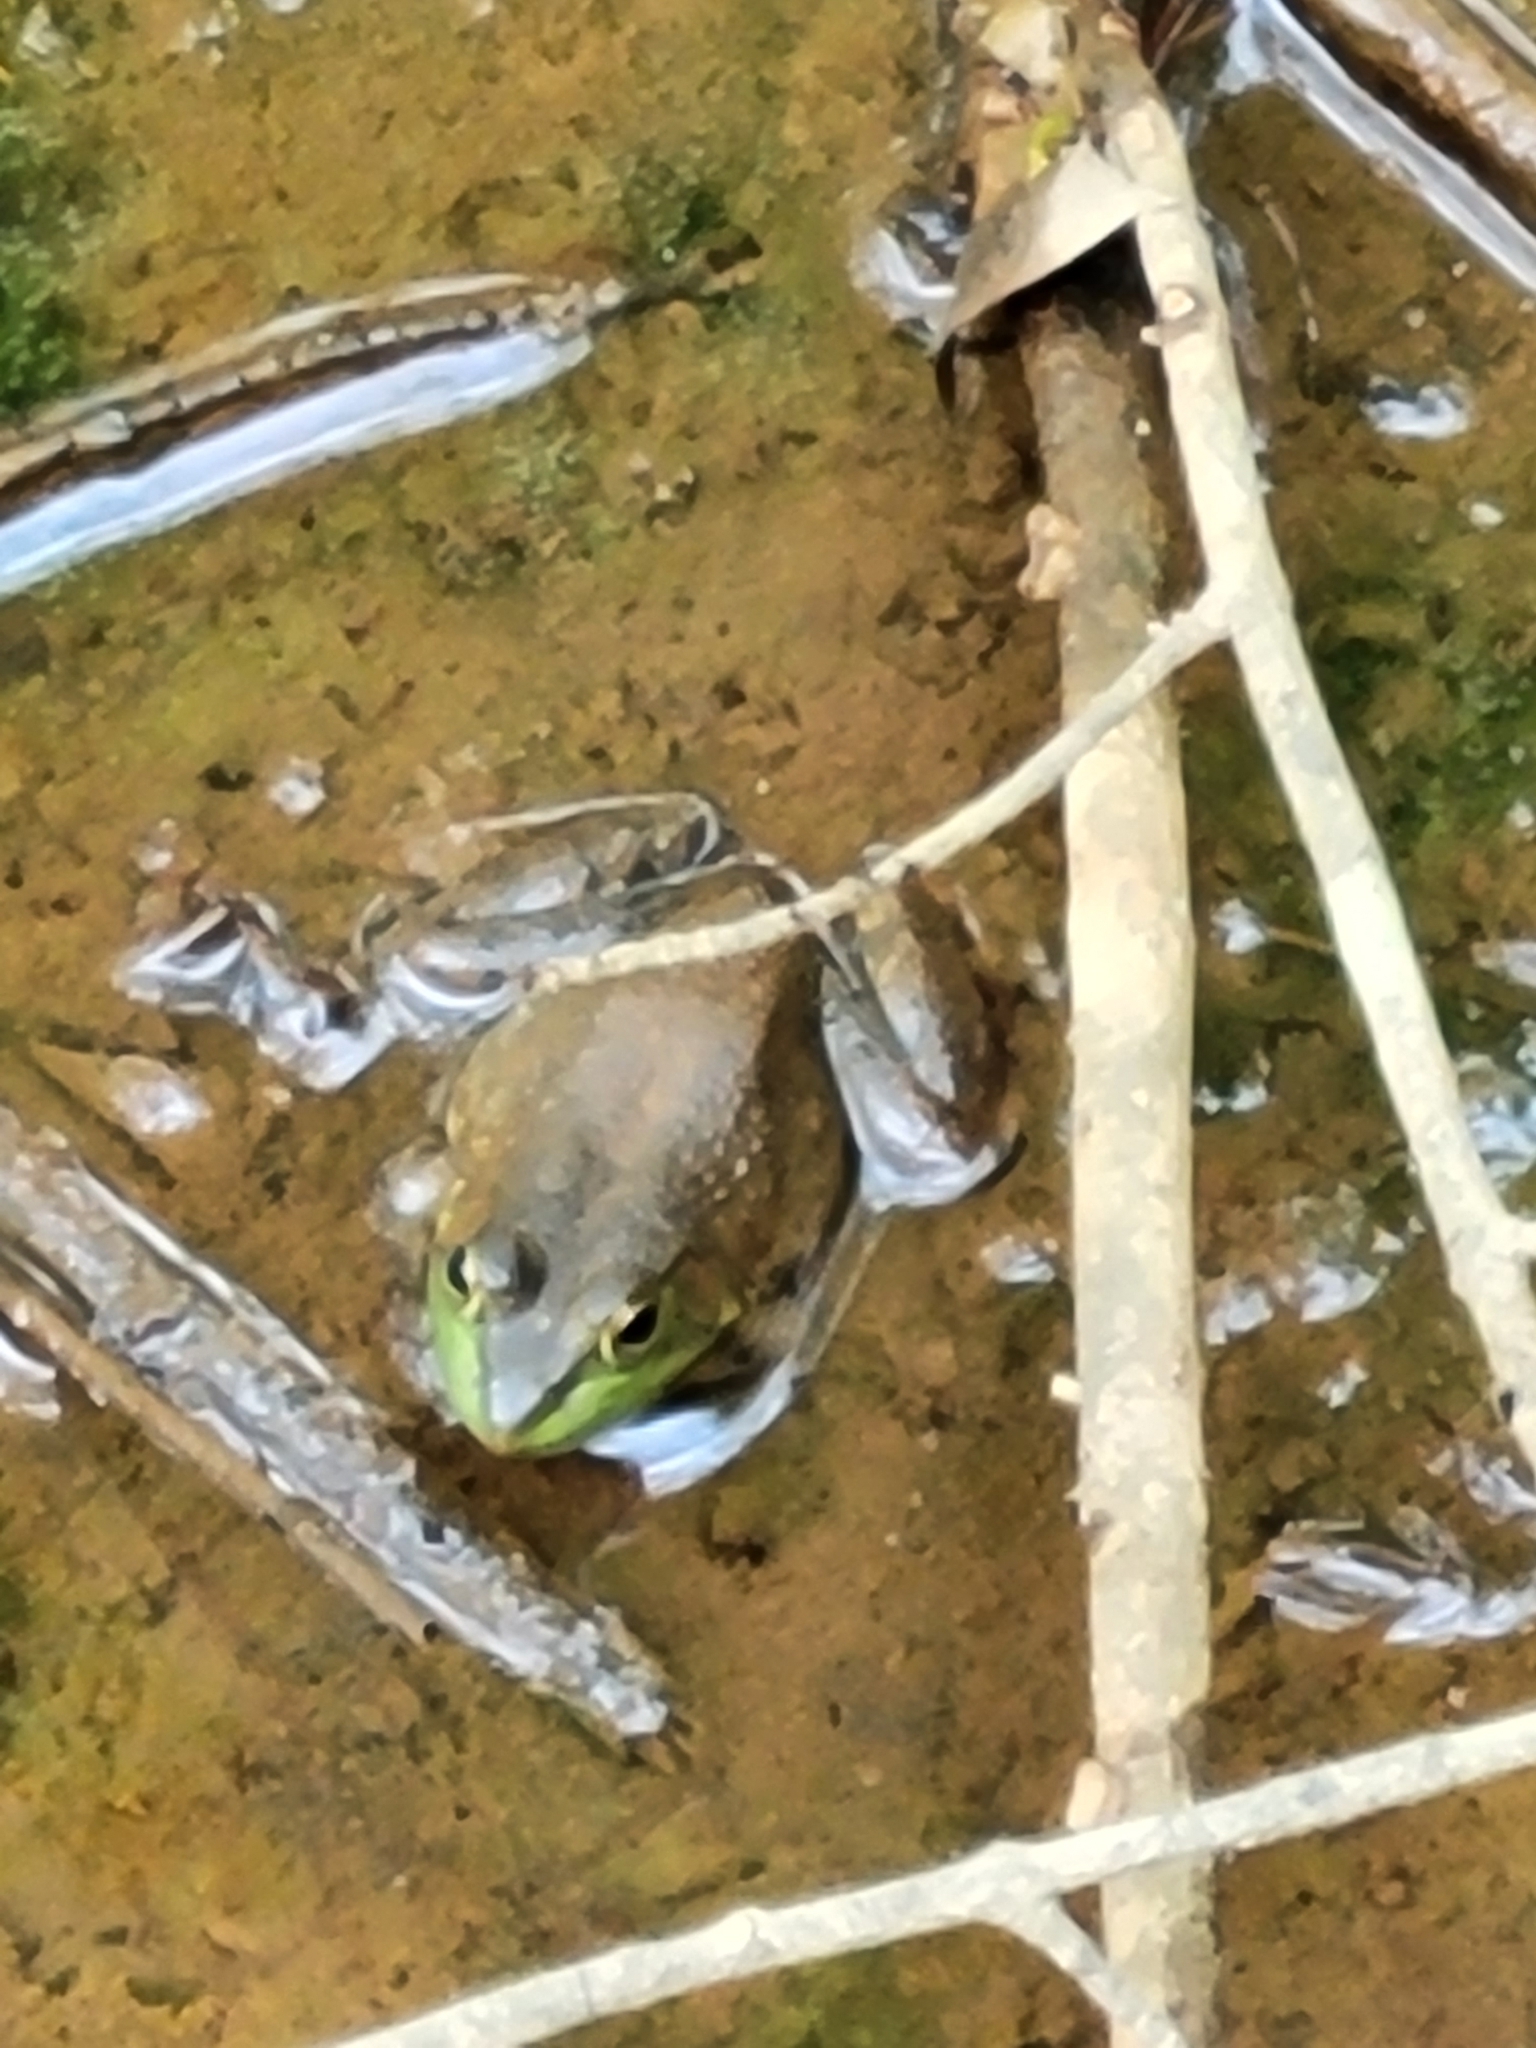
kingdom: Animalia
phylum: Chordata
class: Amphibia
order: Anura
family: Ranidae
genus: Lithobates
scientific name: Lithobates catesbeianus
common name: American bullfrog
